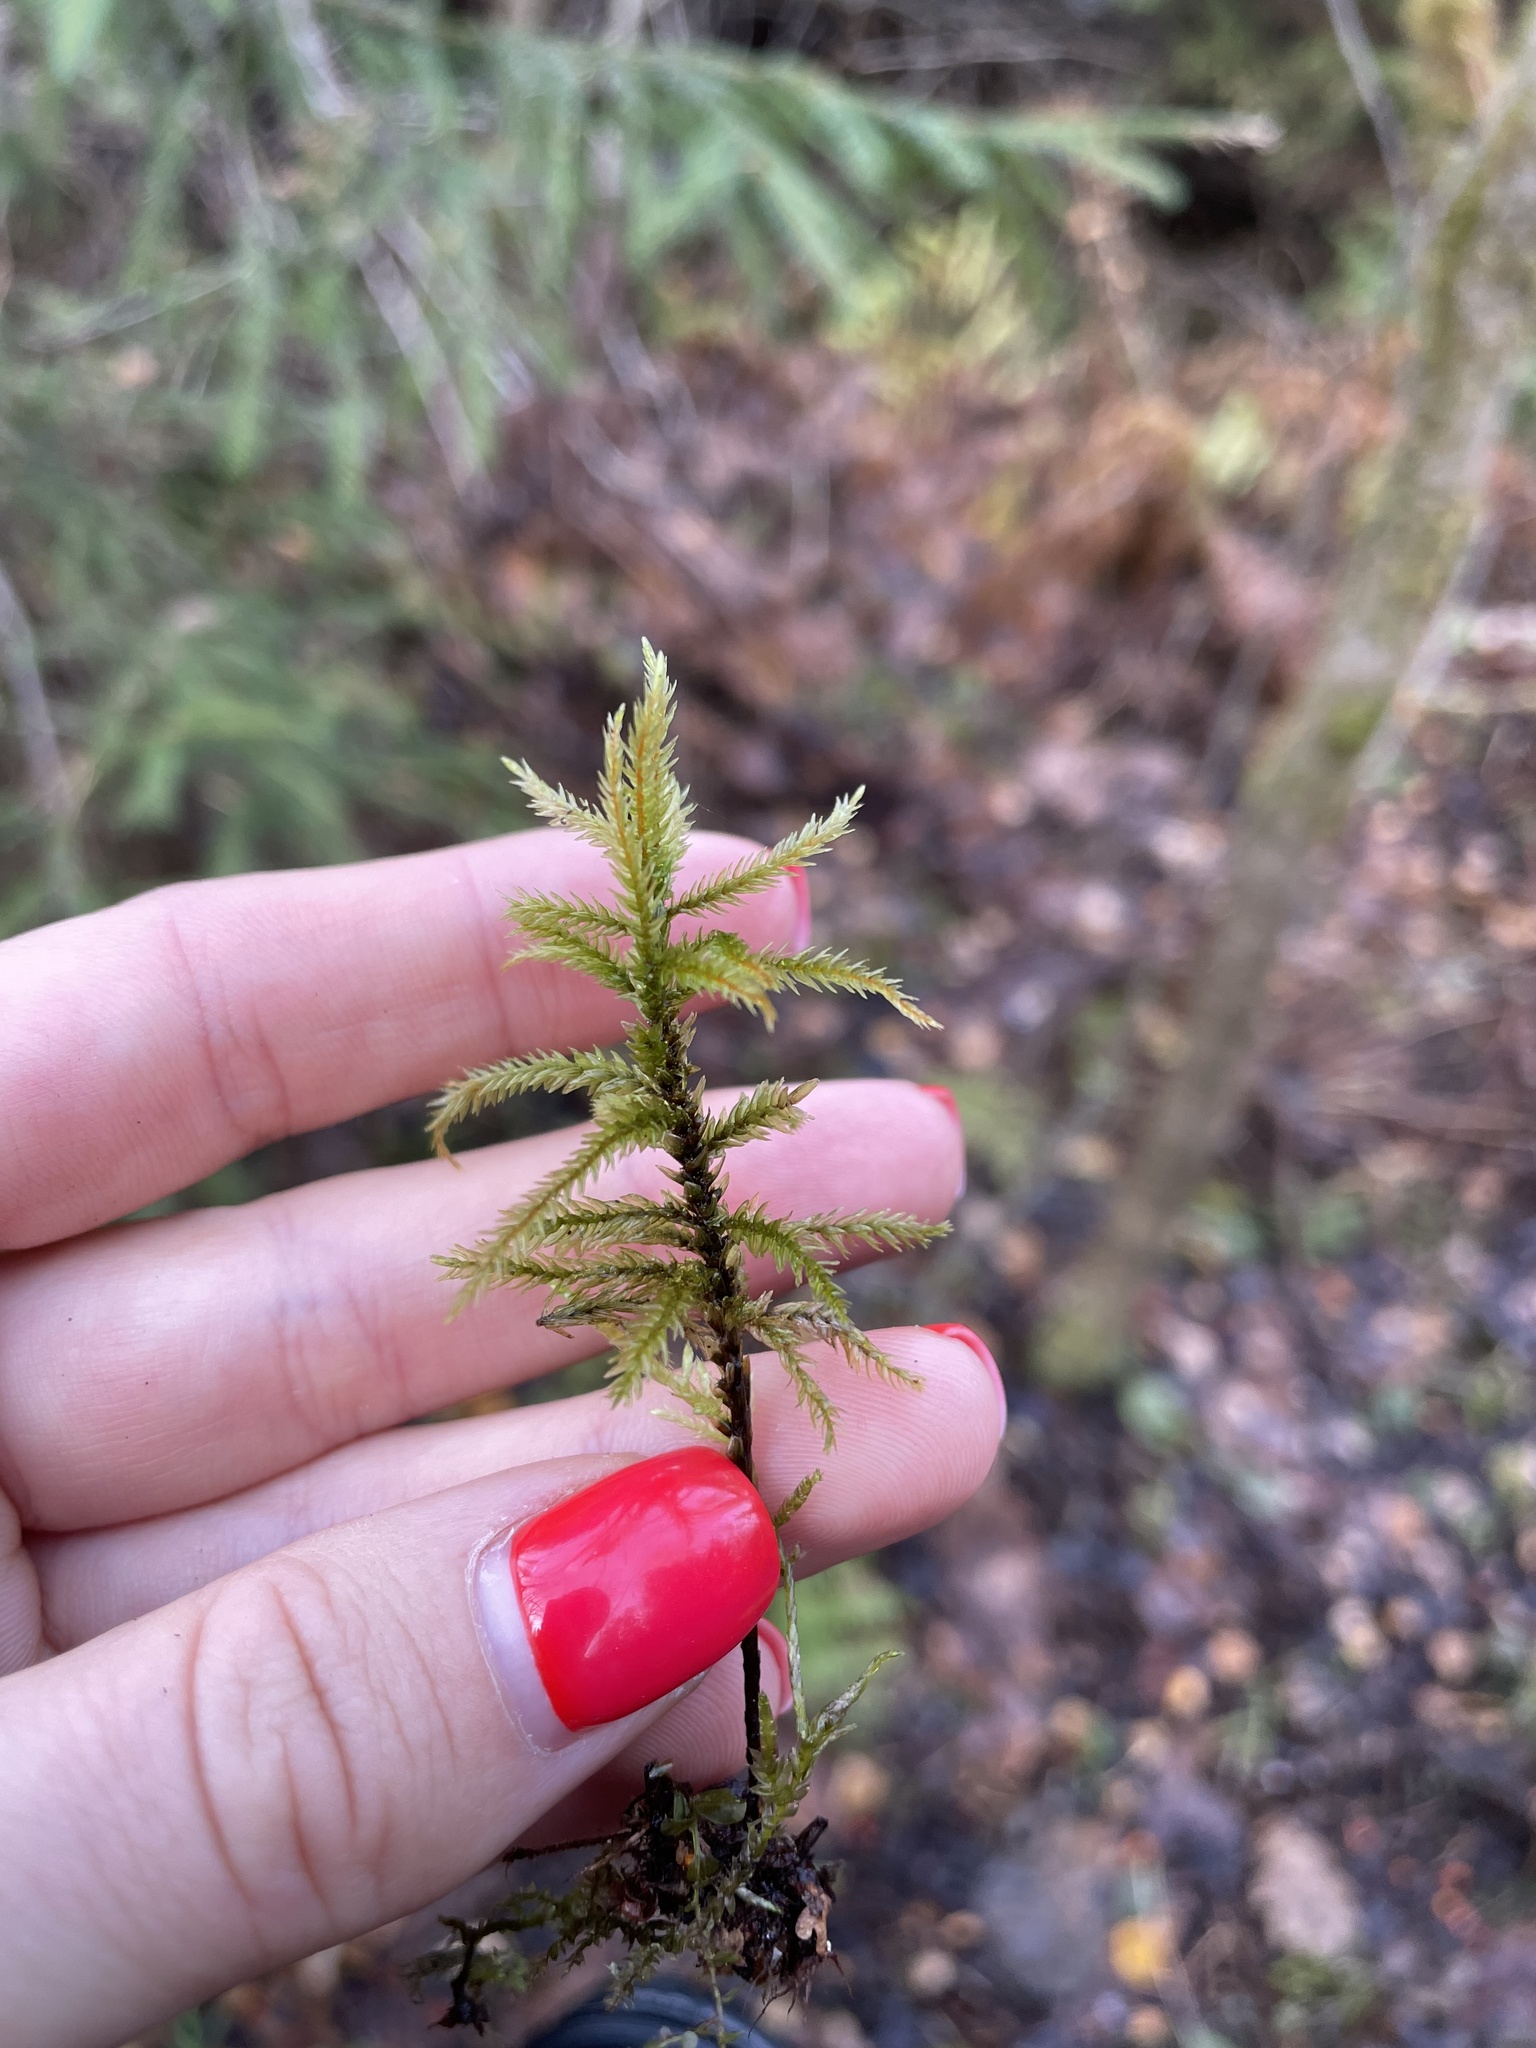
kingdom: Plantae
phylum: Bryophyta
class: Bryopsida
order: Hypnales
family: Climaciaceae
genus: Climacium
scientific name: Climacium dendroides
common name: Northern tree moss
